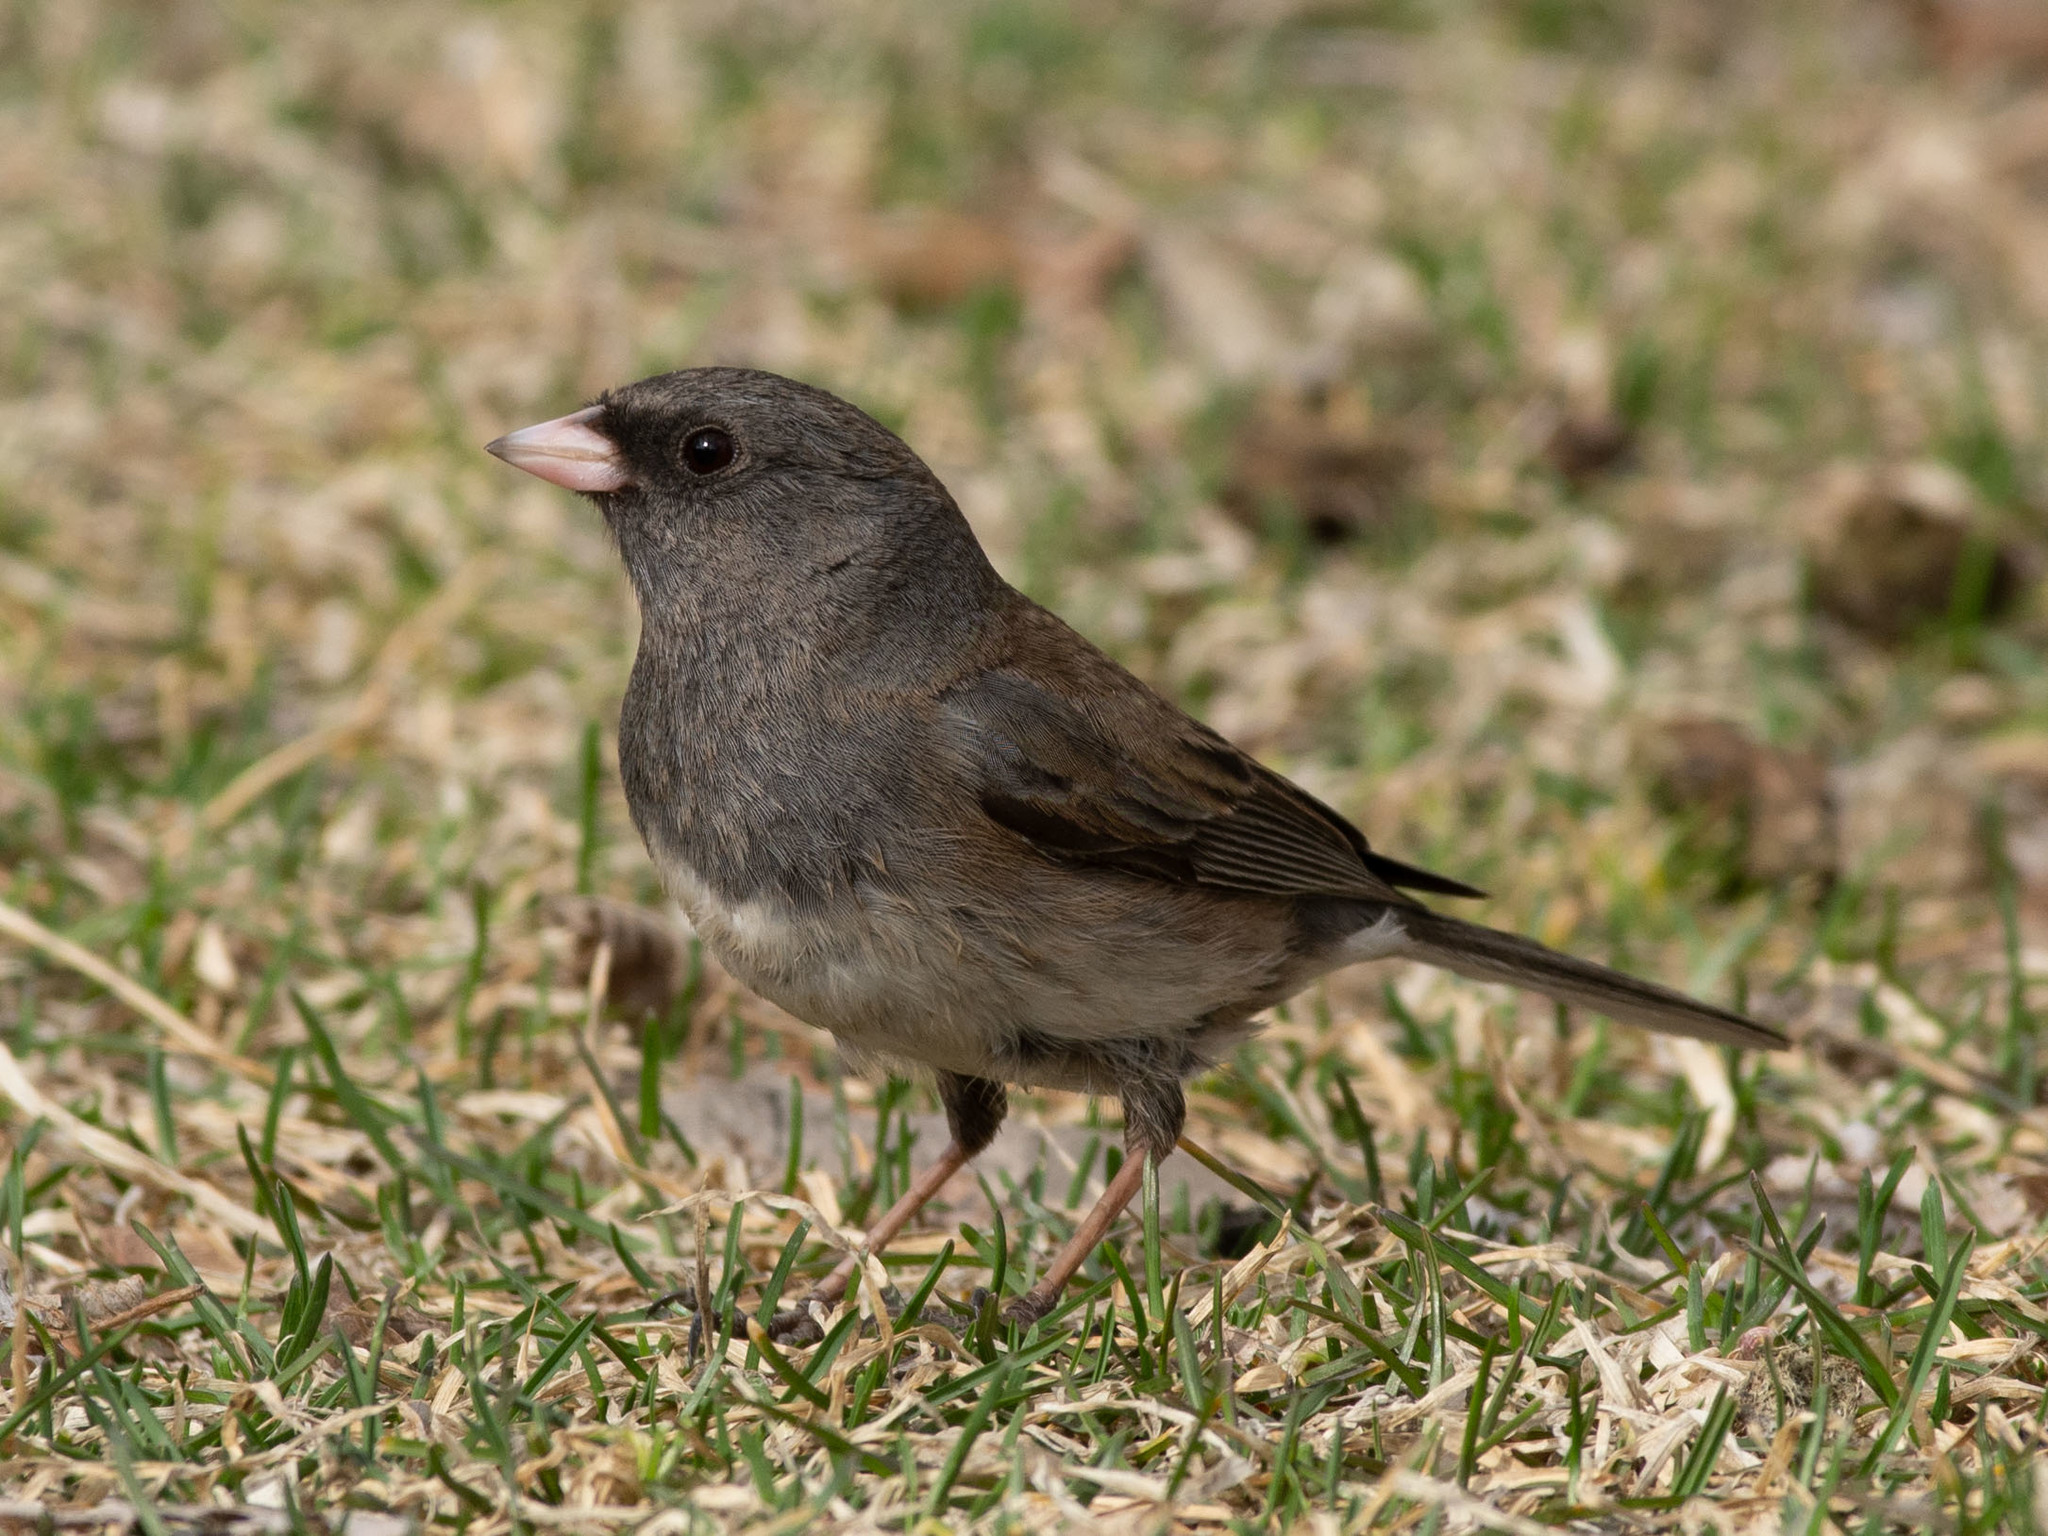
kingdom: Animalia
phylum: Chordata
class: Aves
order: Passeriformes
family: Passerellidae
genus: Junco
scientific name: Junco hyemalis
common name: Dark-eyed junco
